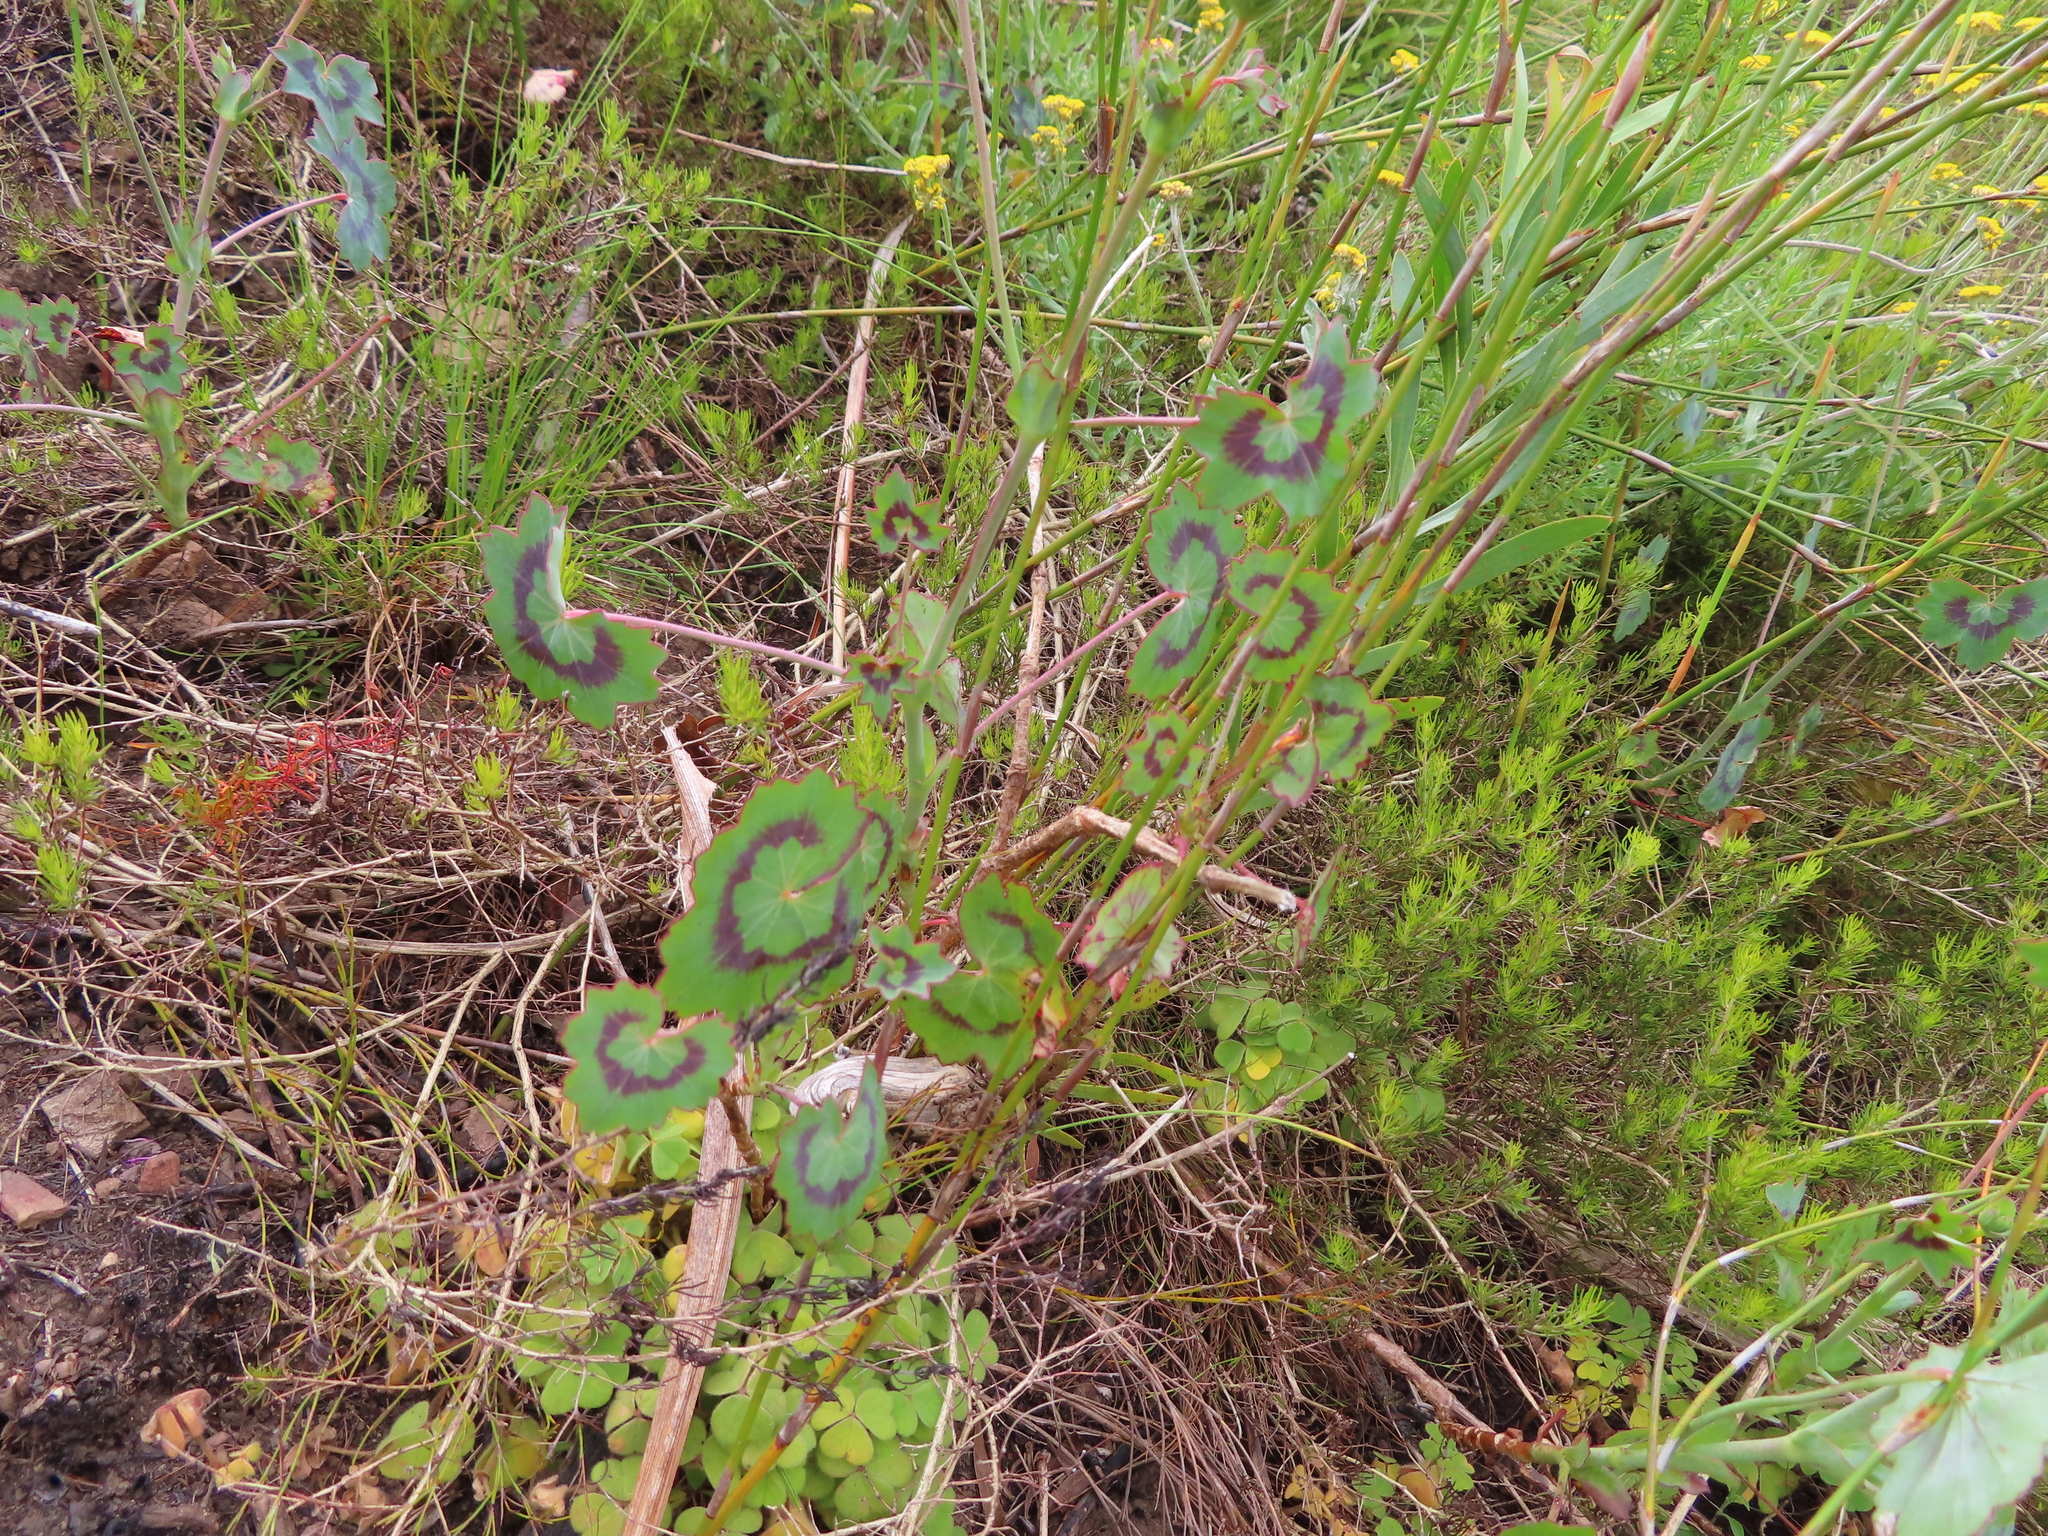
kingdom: Plantae
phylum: Tracheophyta
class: Magnoliopsida
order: Geraniales
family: Geraniaceae
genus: Pelargonium
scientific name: Pelargonium tabulare
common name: Table mountain pelargonium
